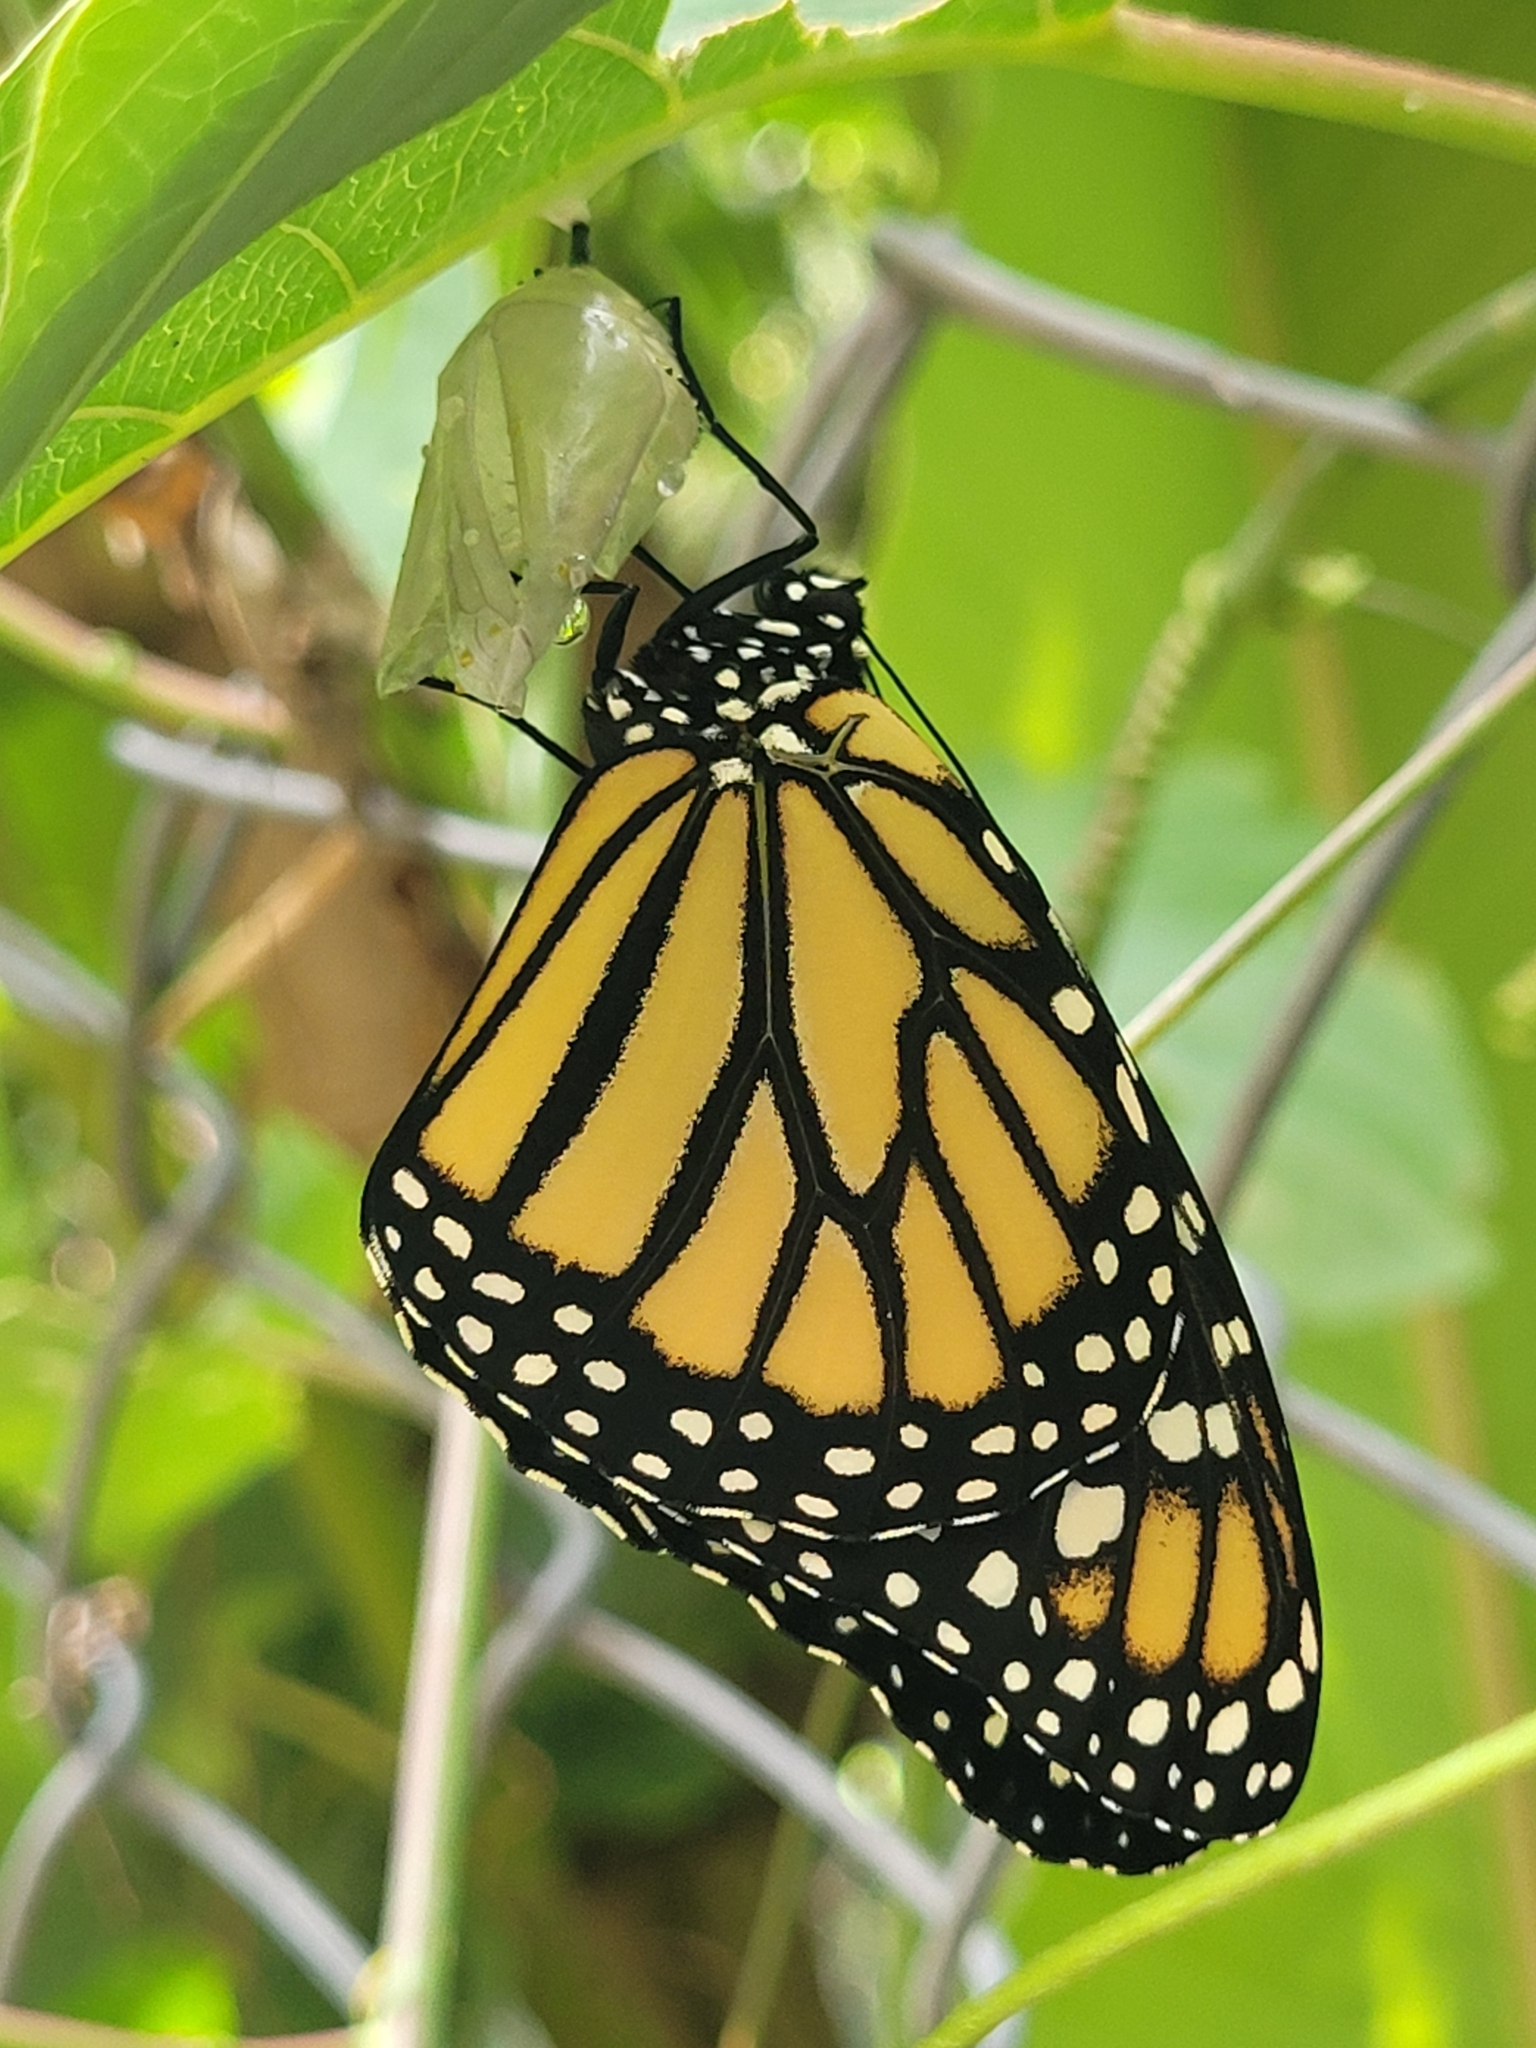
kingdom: Animalia
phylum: Arthropoda
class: Insecta
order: Lepidoptera
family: Nymphalidae
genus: Danaus
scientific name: Danaus plexippus
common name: Monarch
